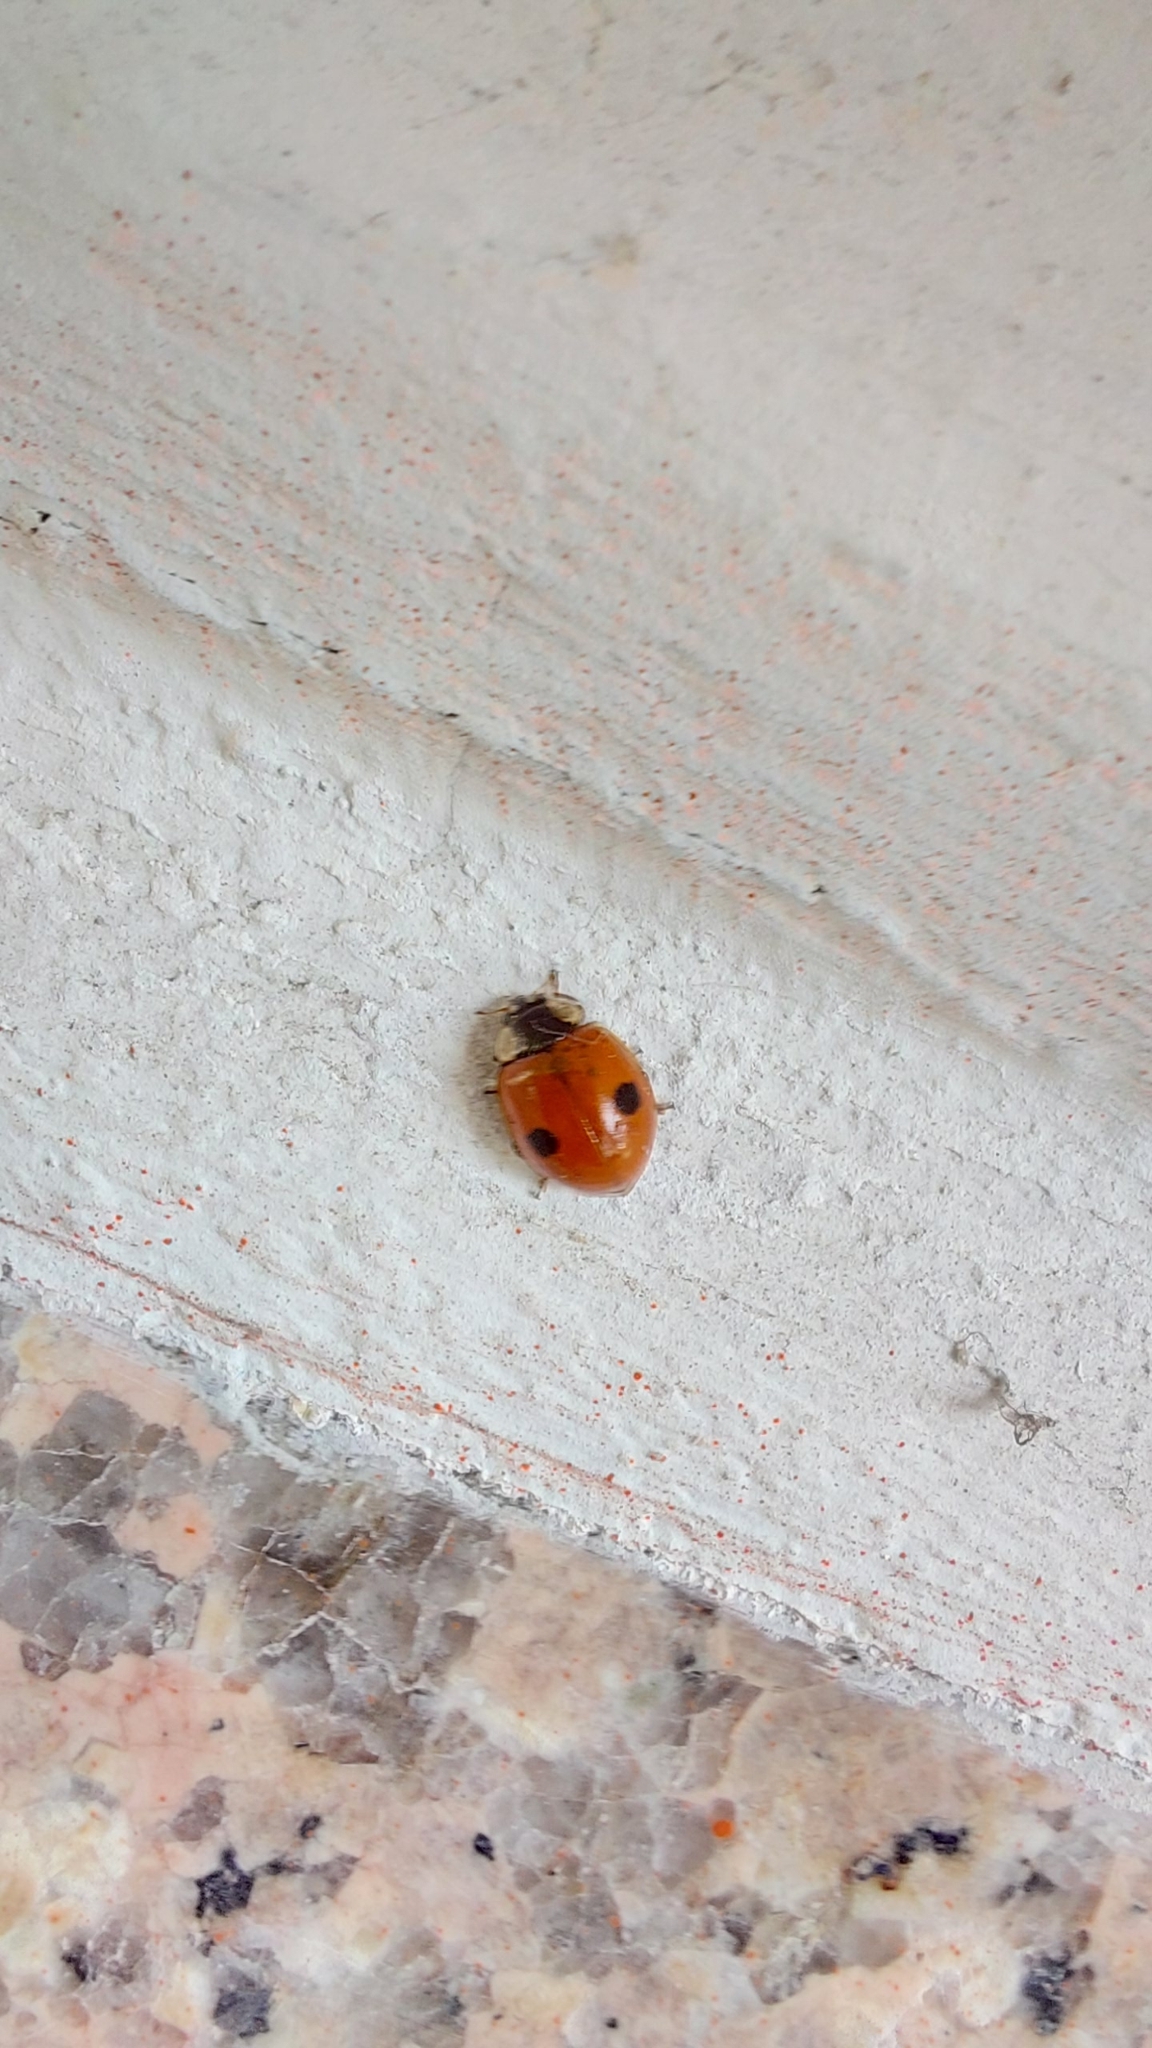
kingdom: Animalia
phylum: Arthropoda
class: Insecta
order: Coleoptera
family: Coccinellidae
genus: Adalia
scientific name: Adalia bipunctata
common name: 2-spot ladybird
